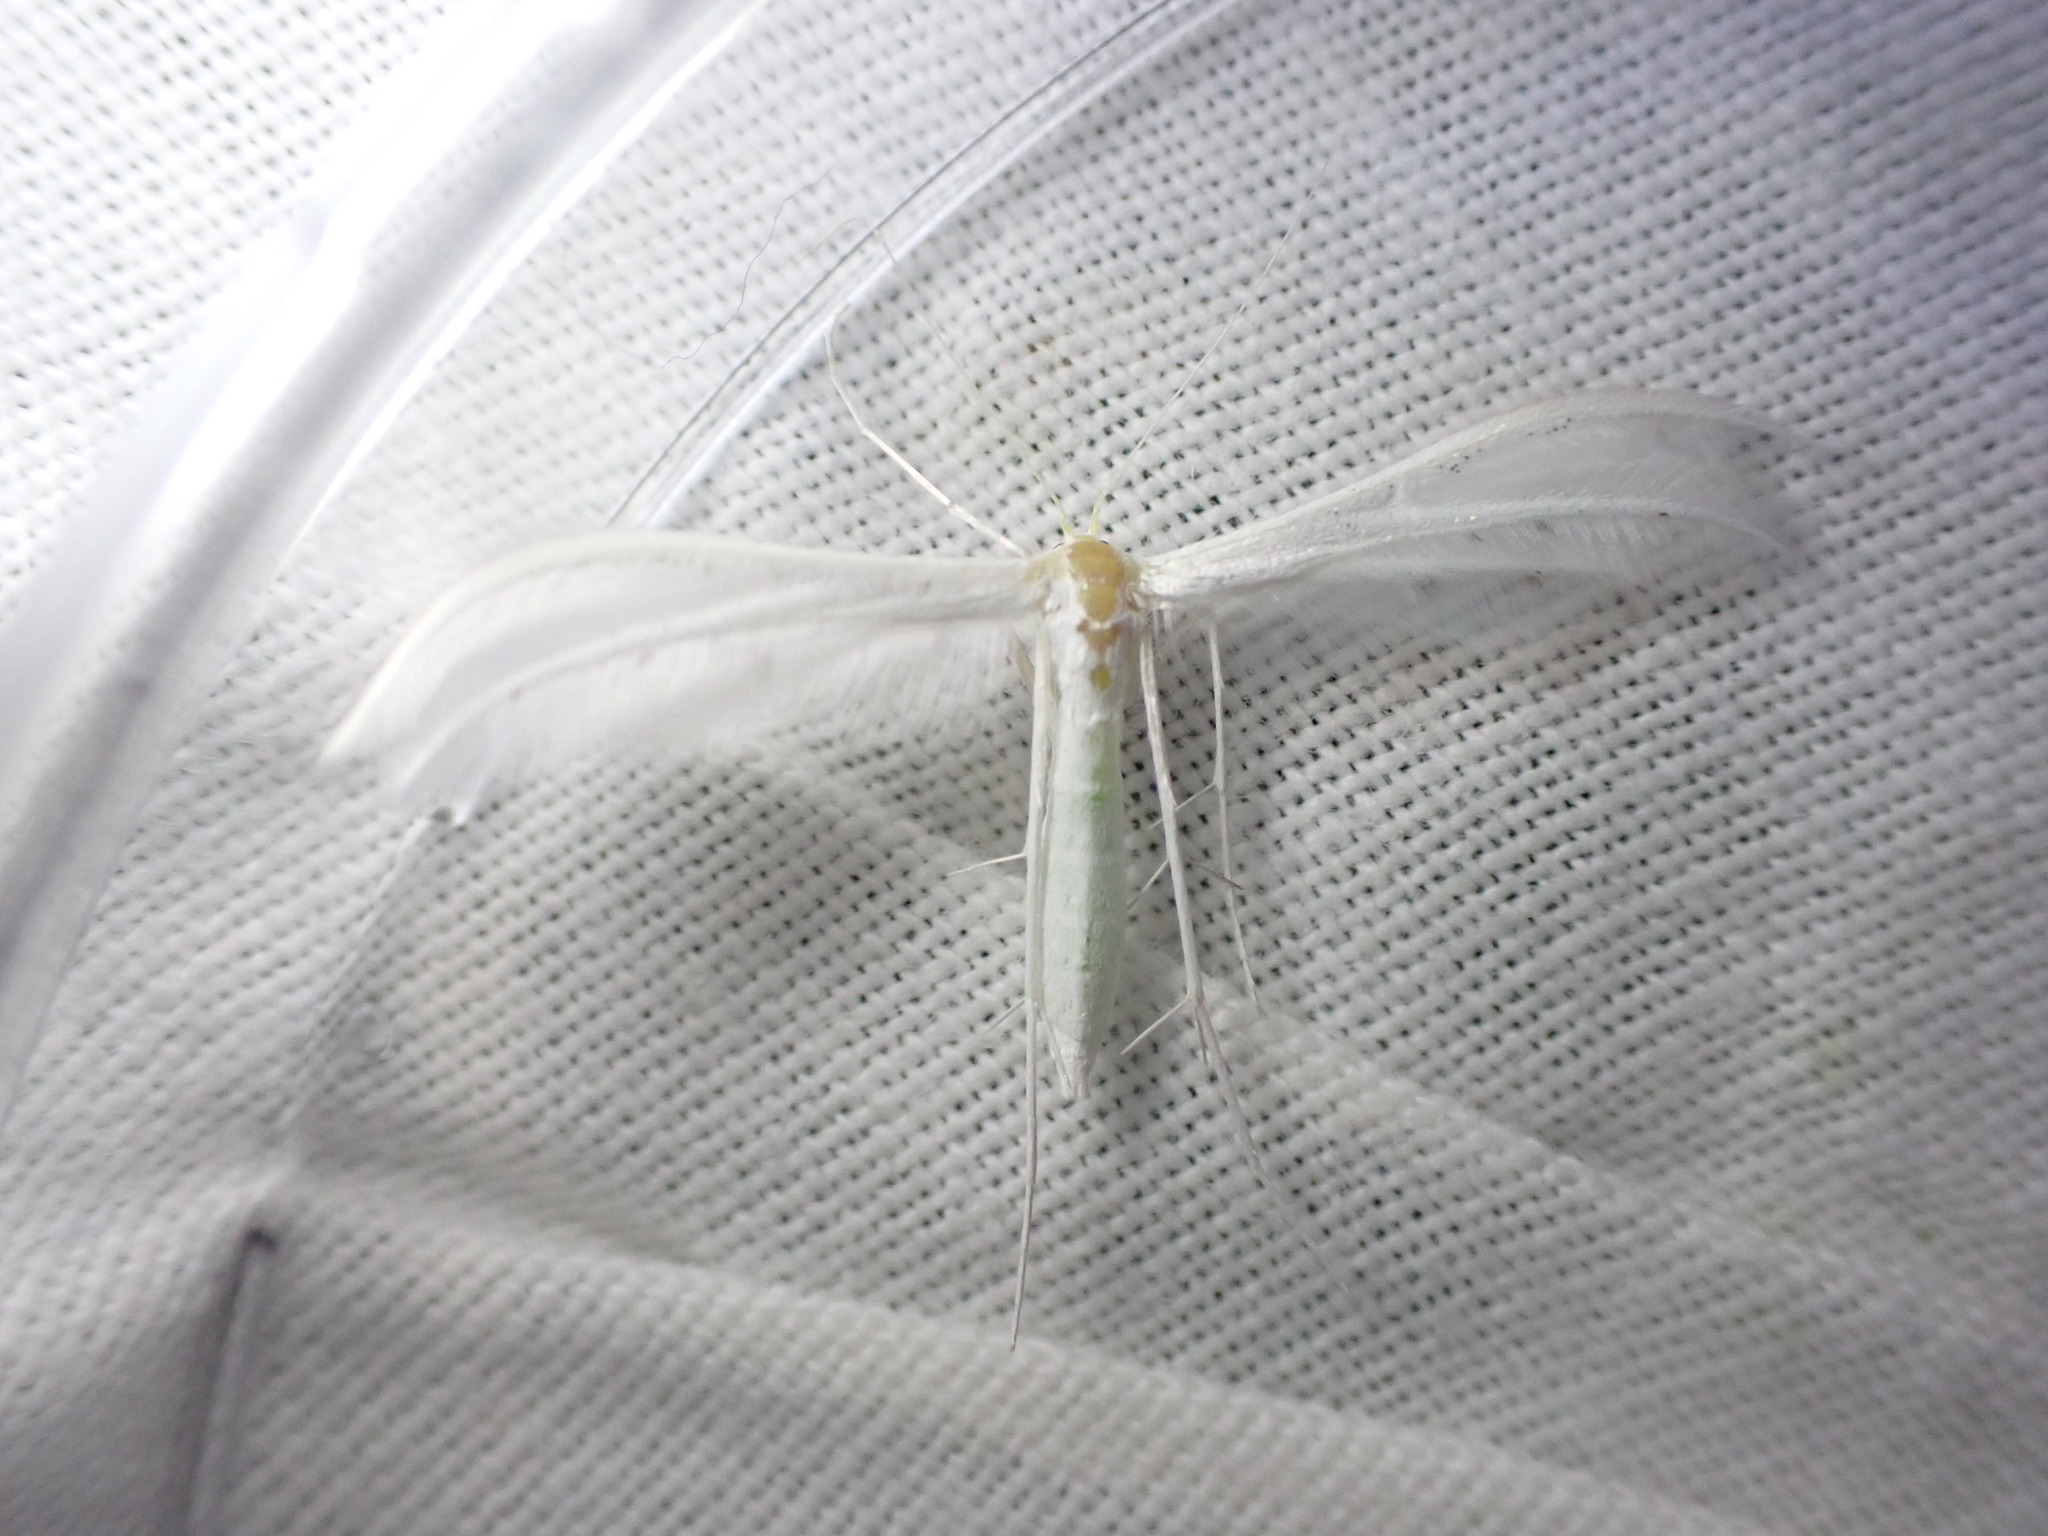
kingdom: Animalia
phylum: Arthropoda
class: Insecta
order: Lepidoptera
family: Pterophoridae
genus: Pterophorus
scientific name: Pterophorus pentadactyla
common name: White plume moth
